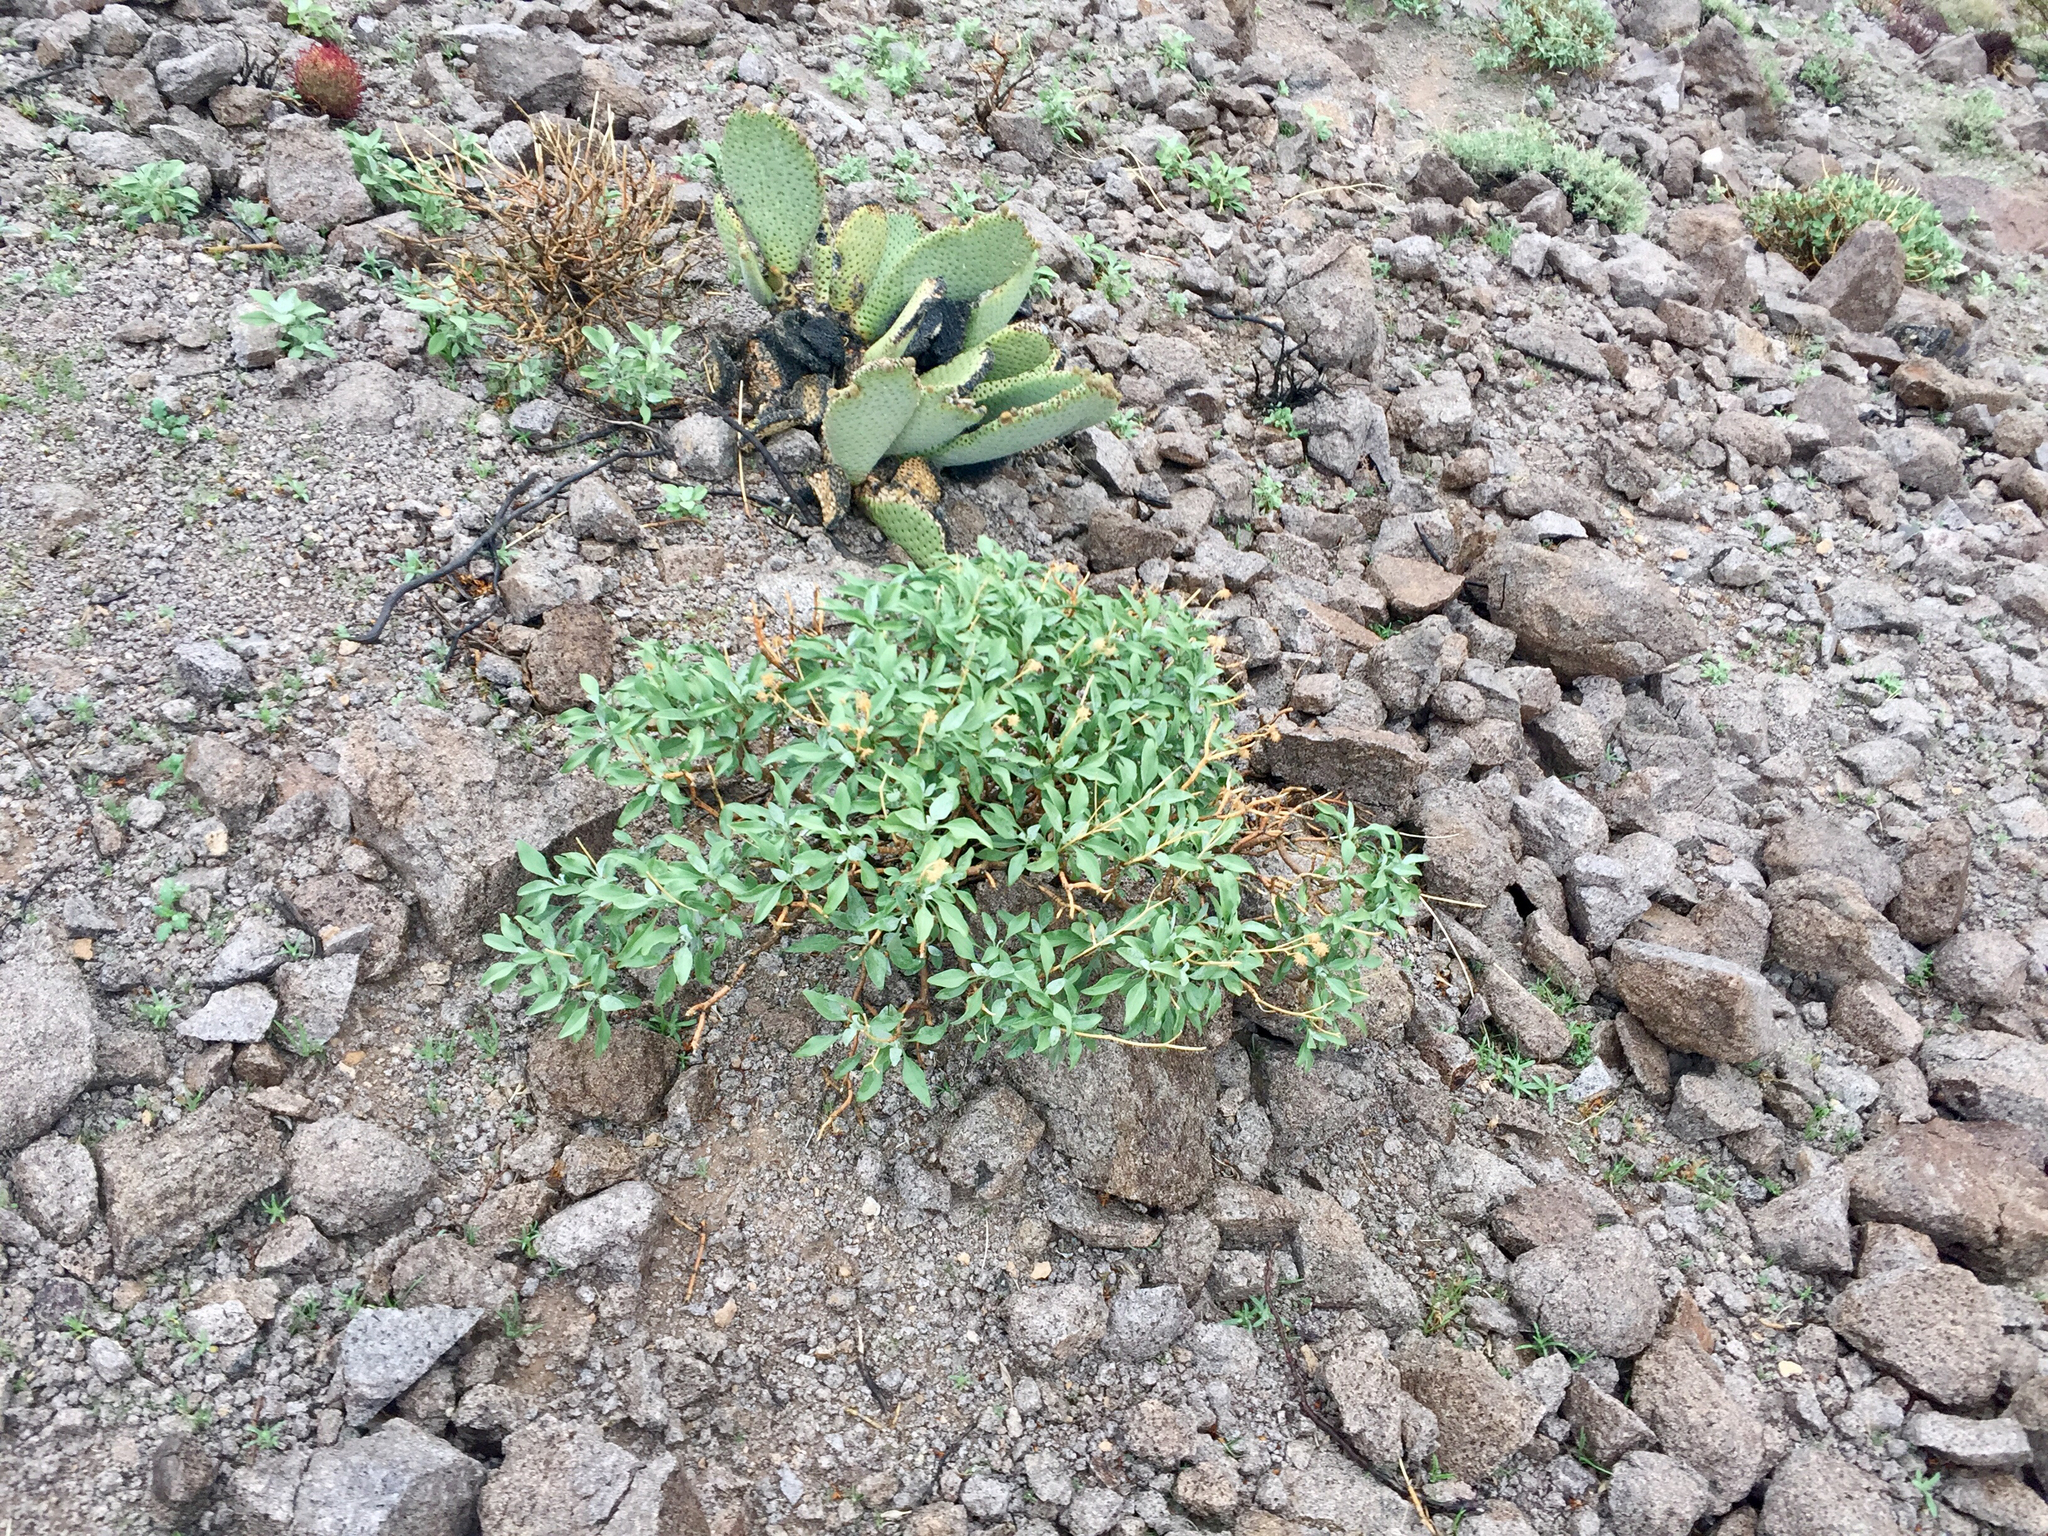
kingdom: Plantae
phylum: Tracheophyta
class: Magnoliopsida
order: Caryophyllales
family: Cactaceae
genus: Opuntia
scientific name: Opuntia basilaris
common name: Beavertail prickly-pear
